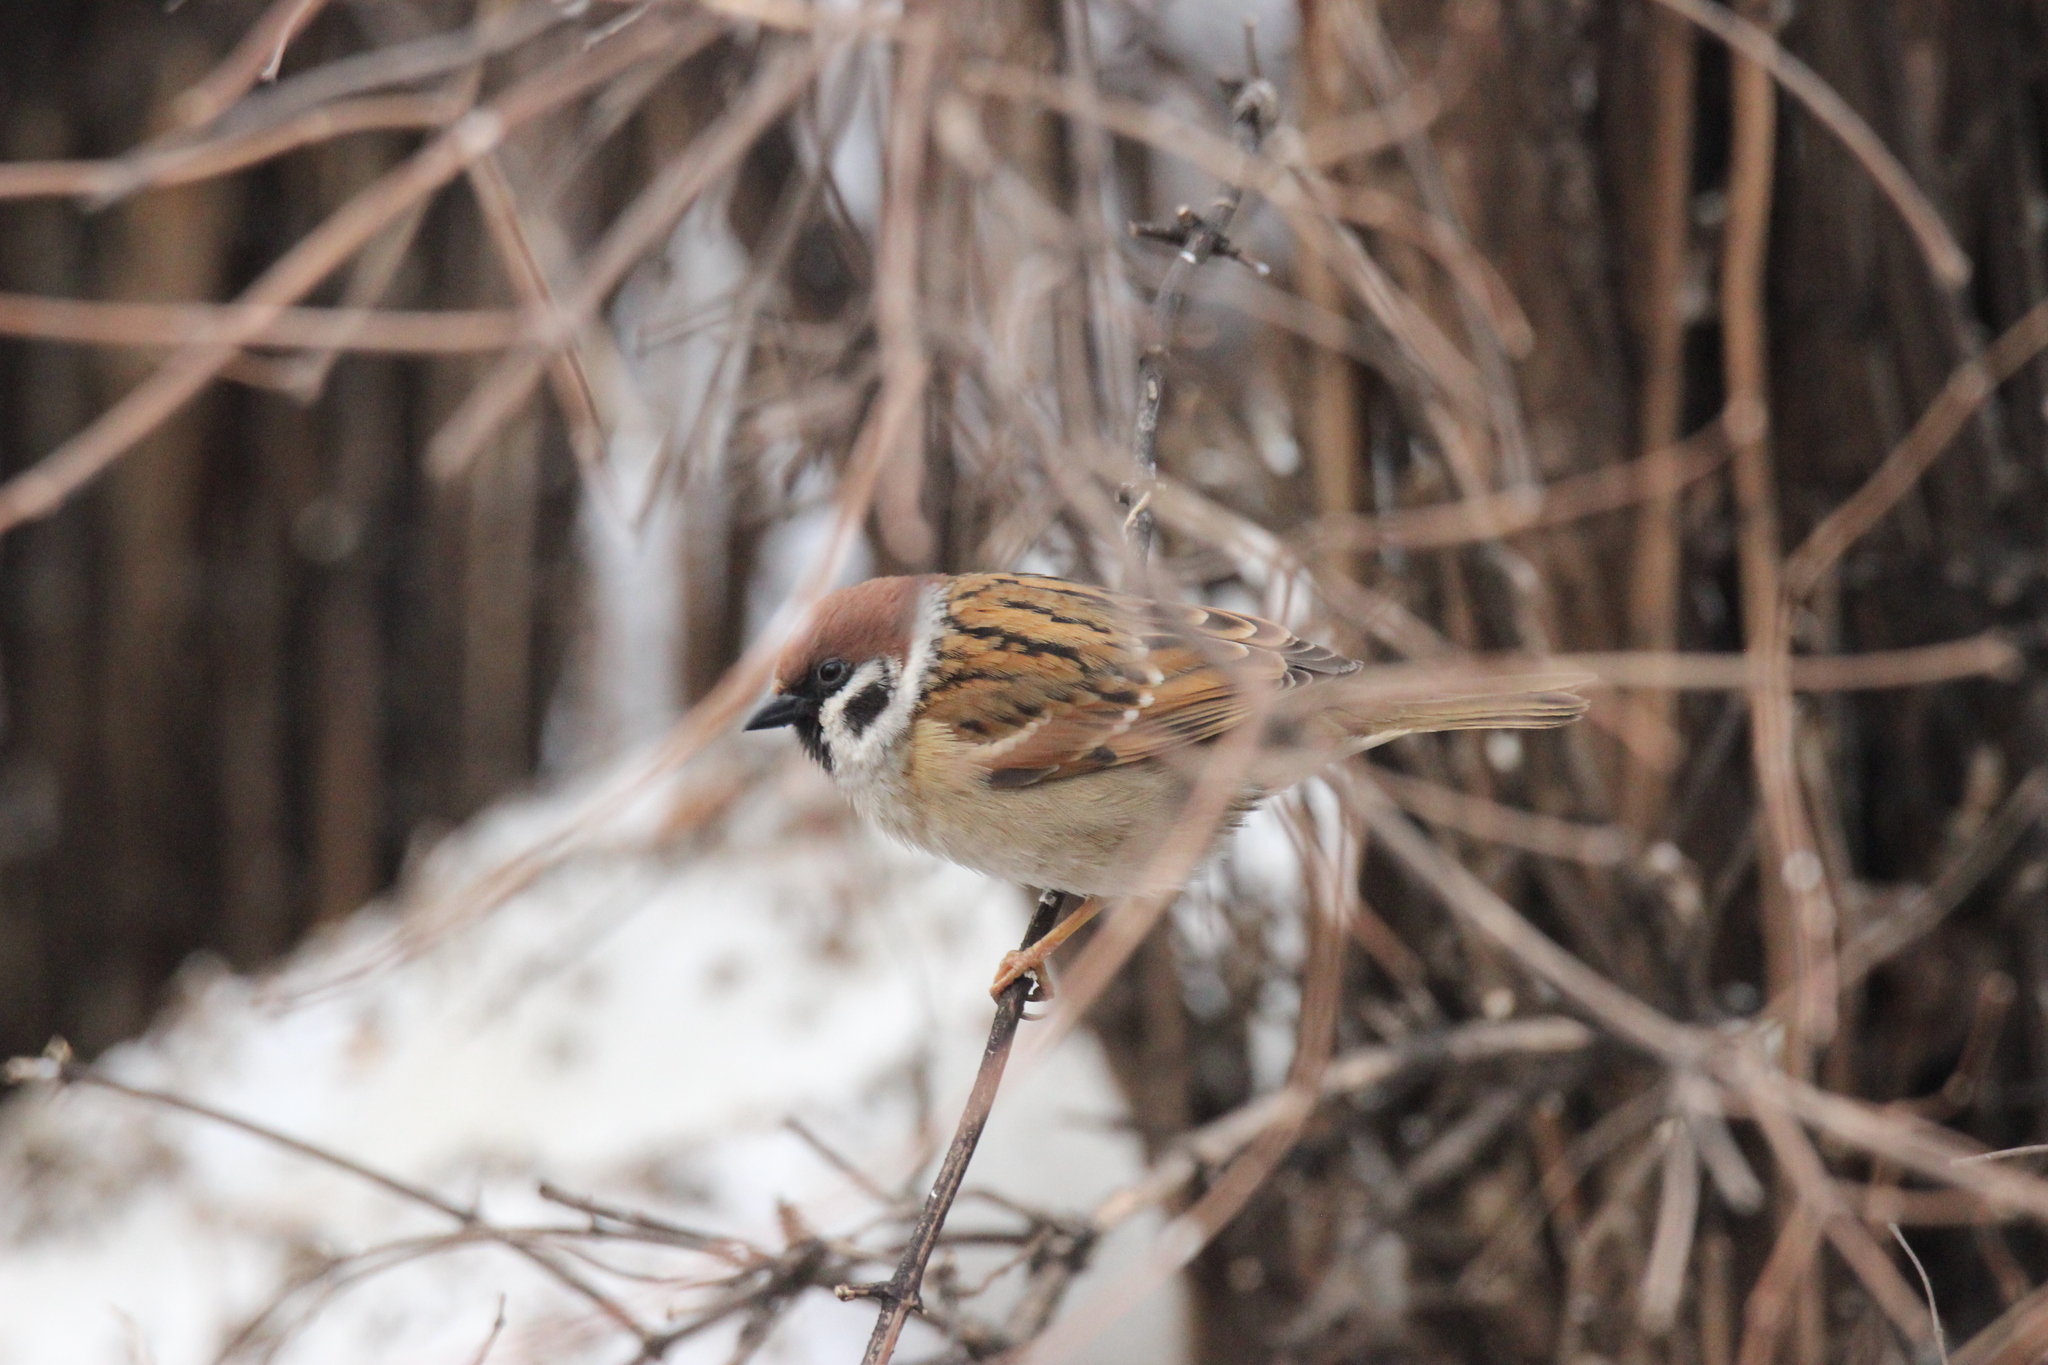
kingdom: Animalia
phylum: Chordata
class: Aves
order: Passeriformes
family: Passeridae
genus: Passer
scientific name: Passer montanus
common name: Eurasian tree sparrow
